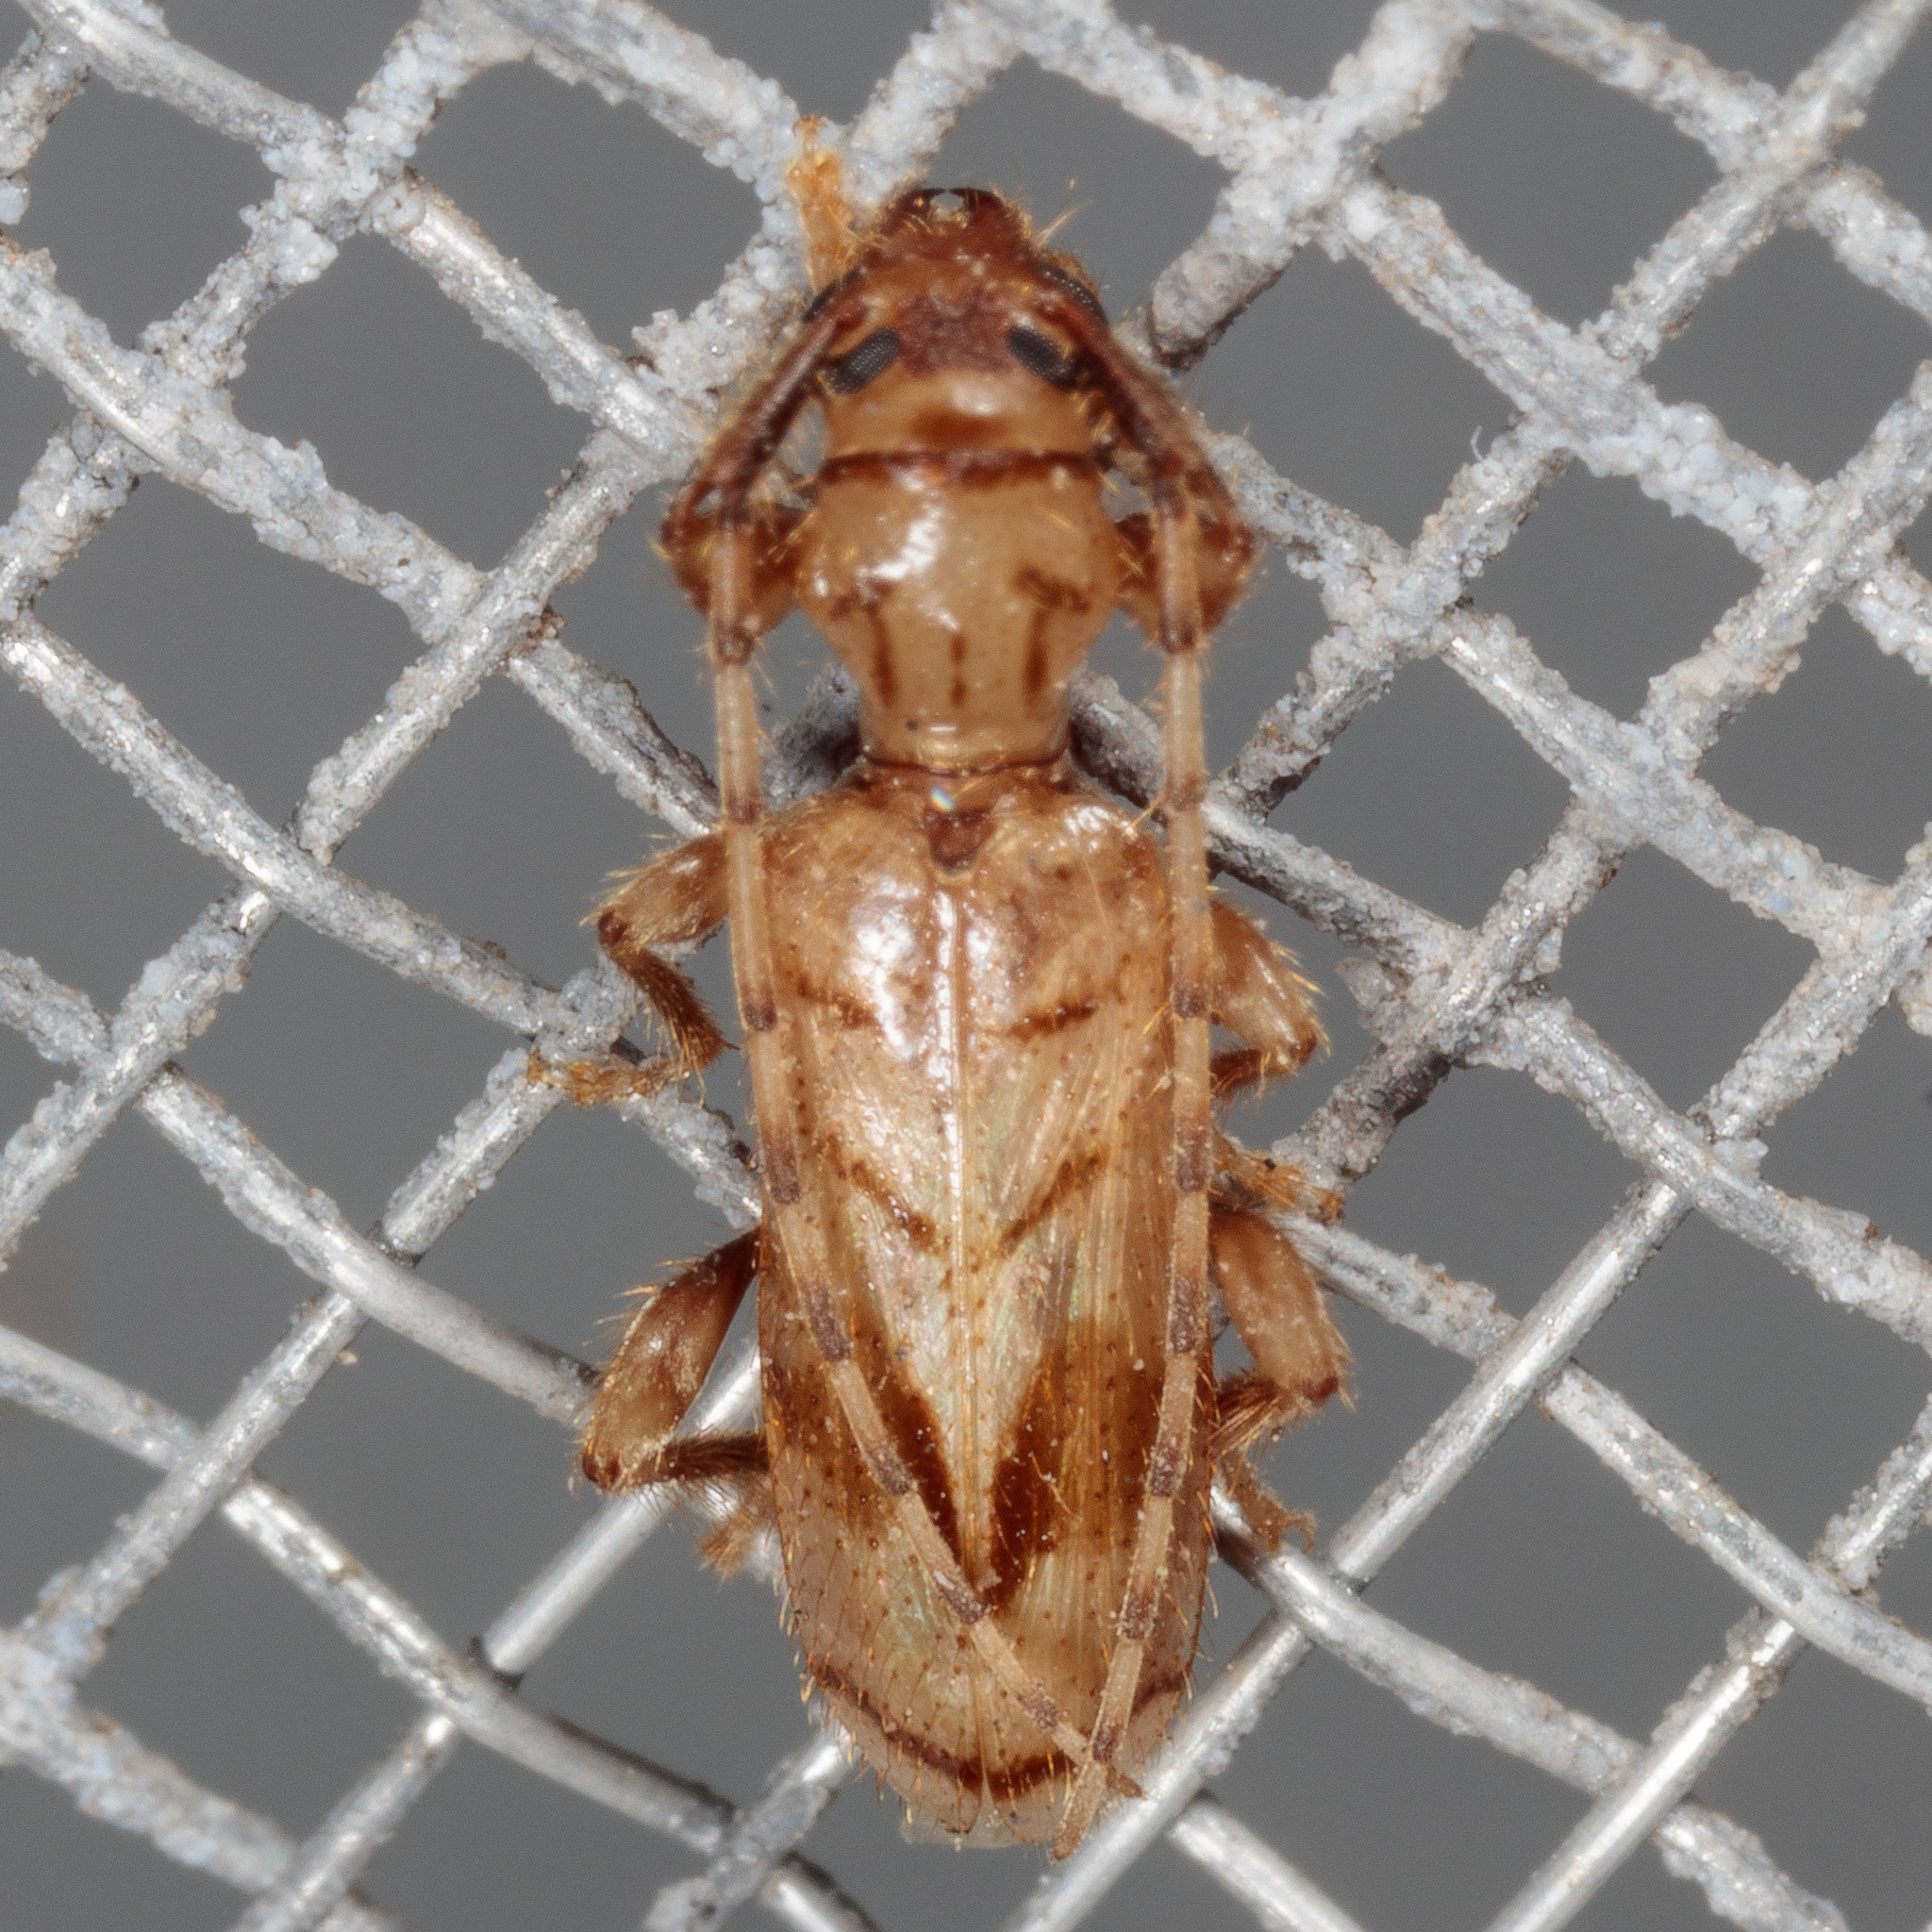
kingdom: Animalia
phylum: Arthropoda
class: Insecta
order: Coleoptera
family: Cerambycidae
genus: Obrium
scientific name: Obrium maculatum
